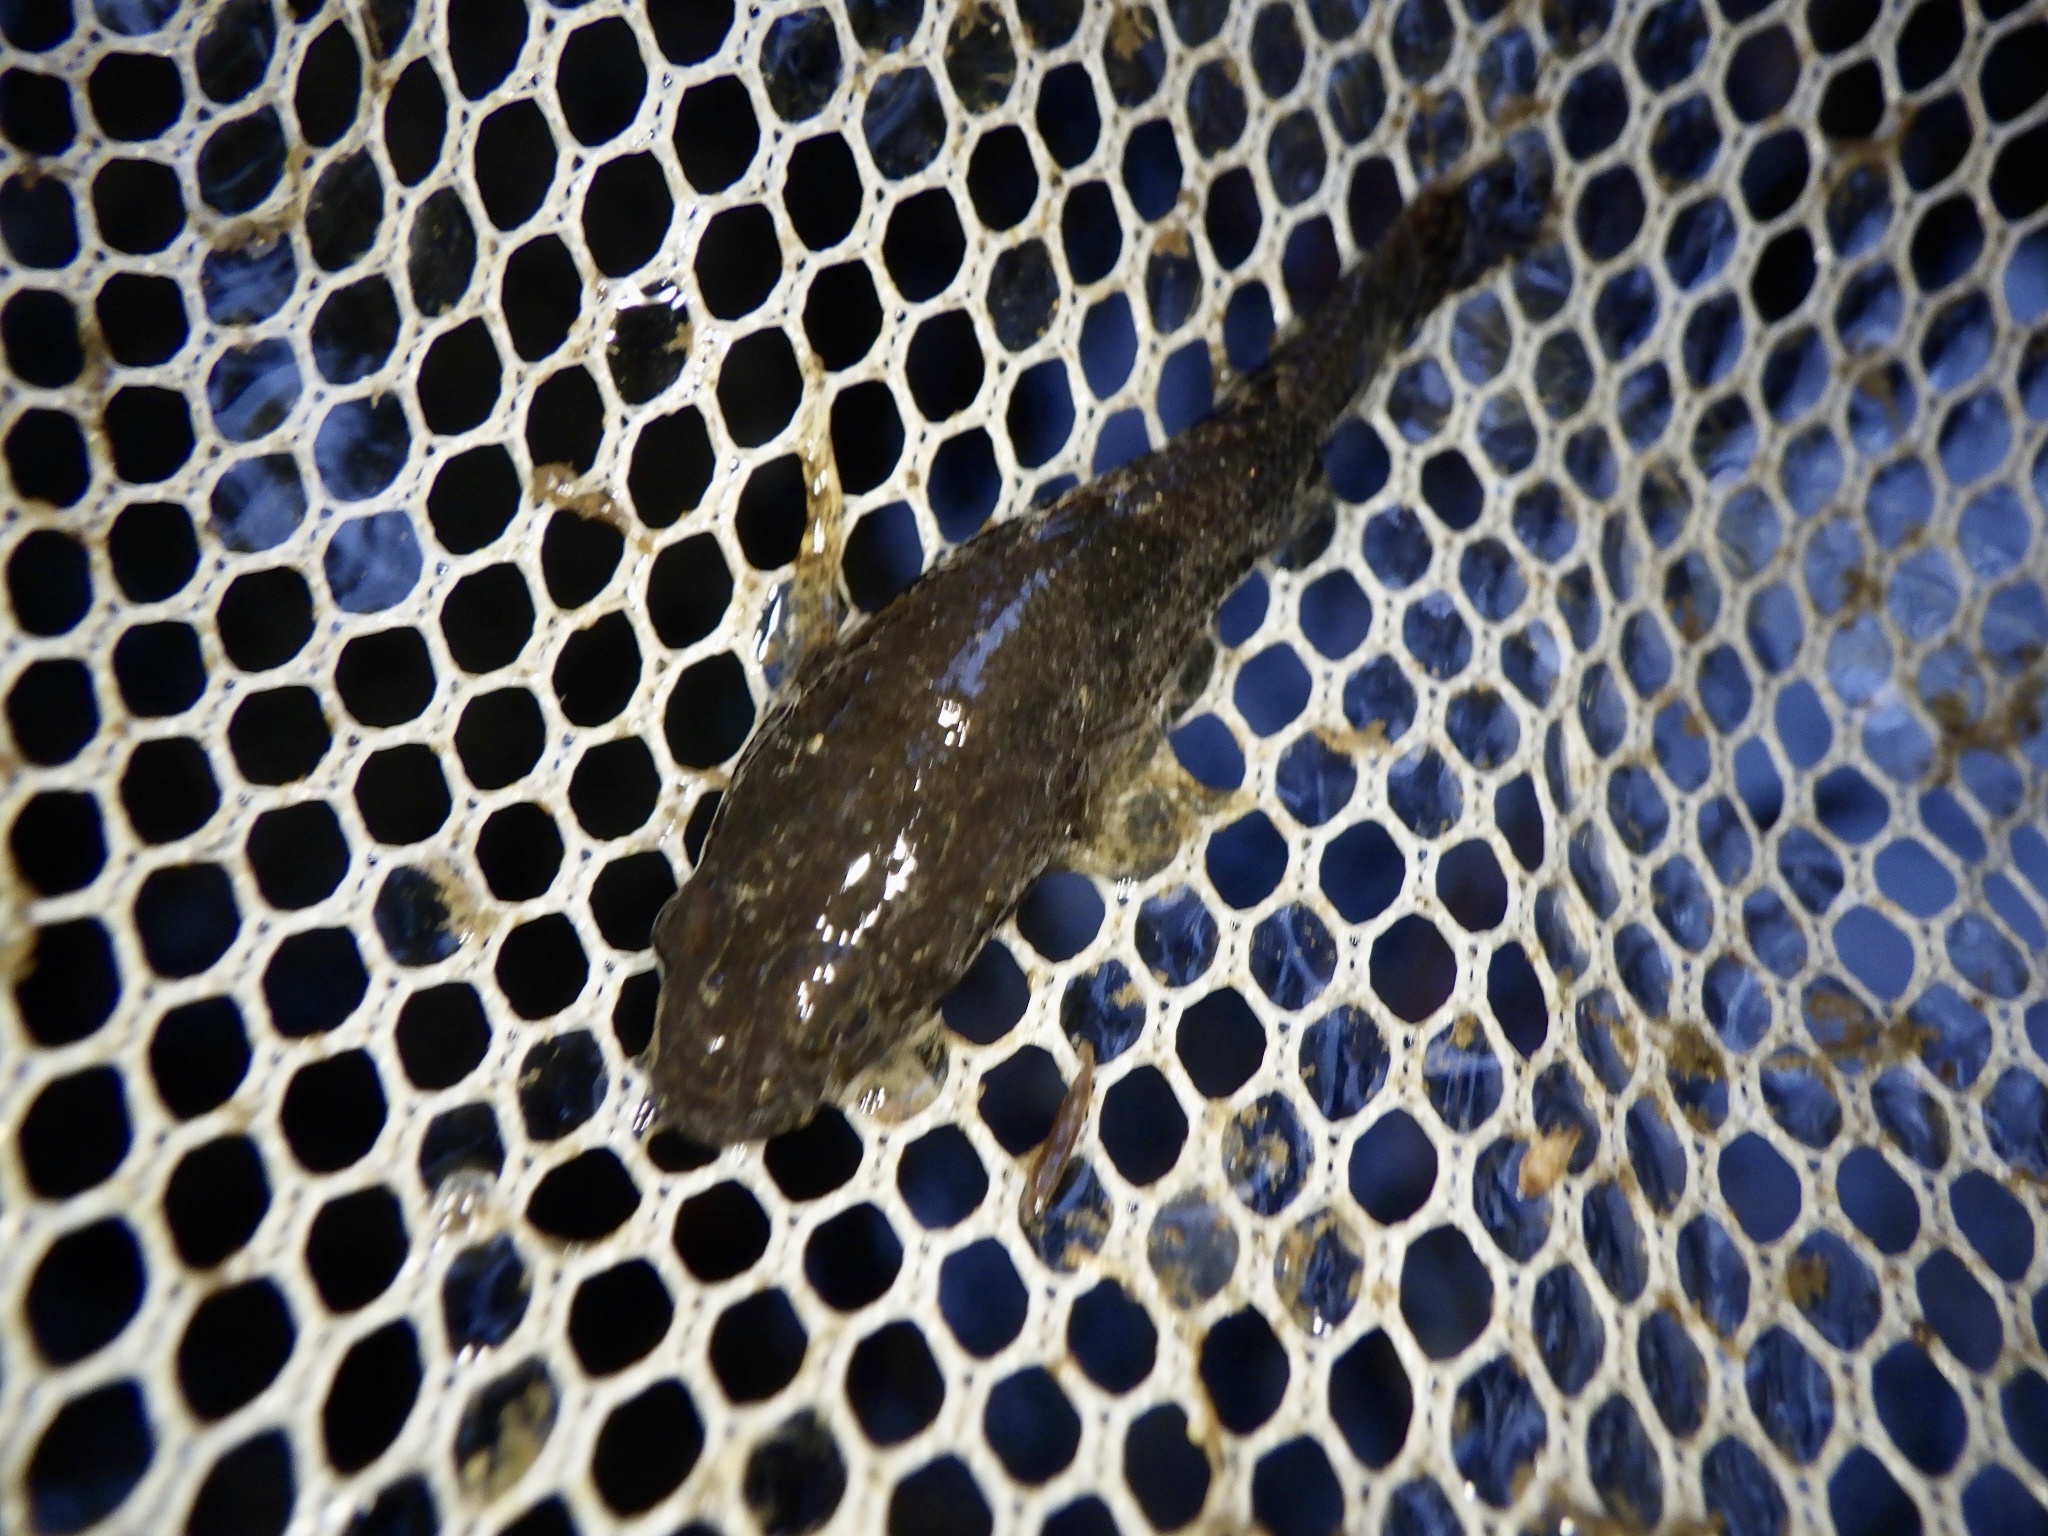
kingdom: Animalia
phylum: Chordata
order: Perciformes
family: Odontobutidae
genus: Odontobutis
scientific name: Odontobutis obscura
